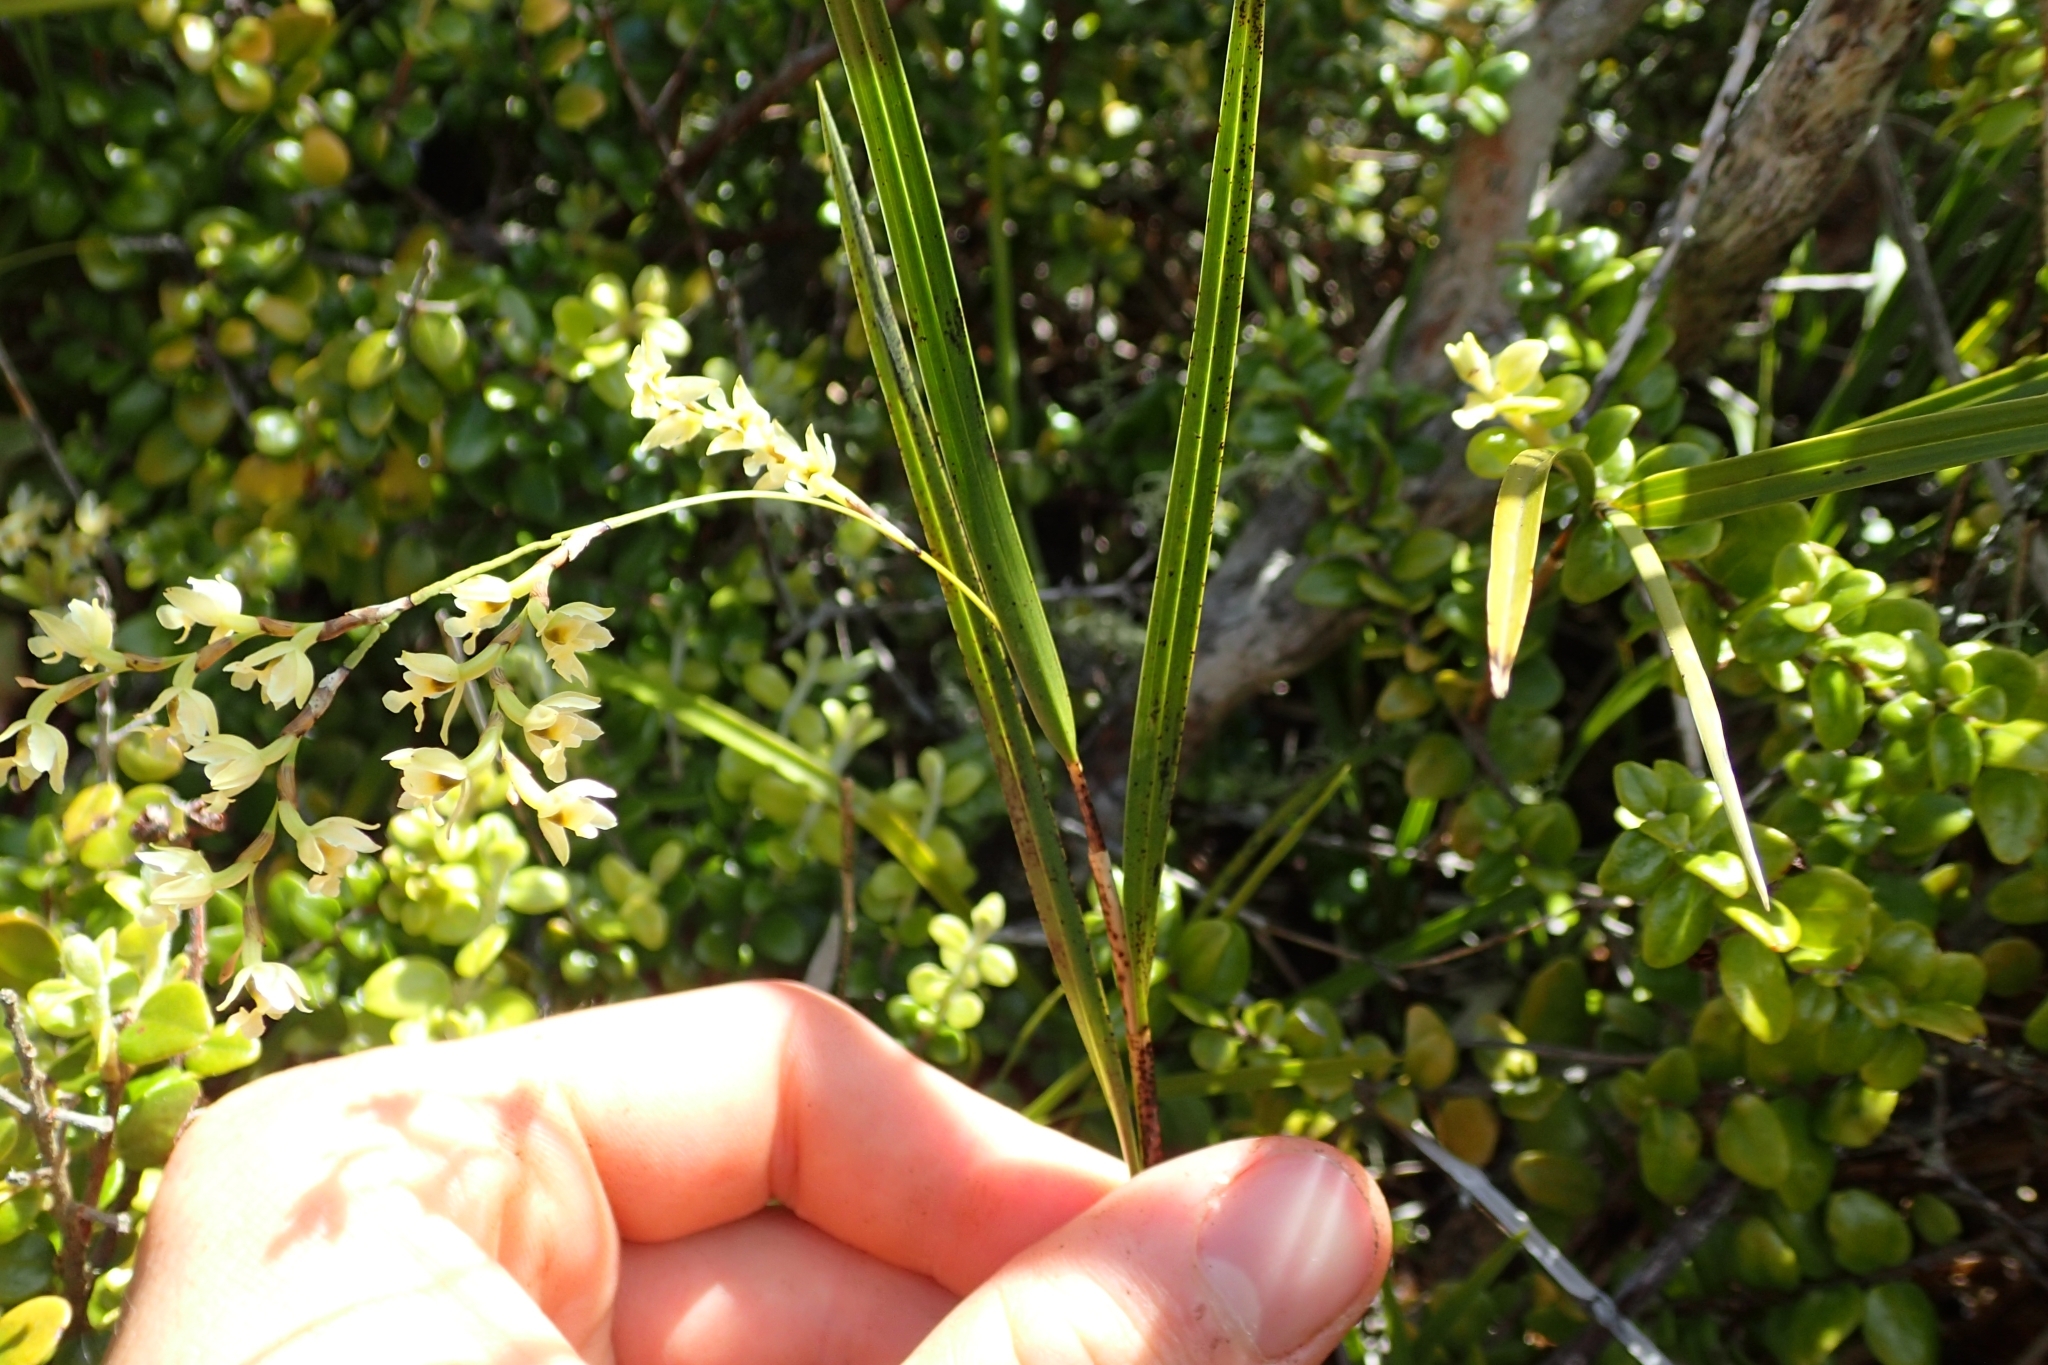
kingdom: Plantae
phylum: Tracheophyta
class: Liliopsida
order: Asparagales
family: Orchidaceae
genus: Earina
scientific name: Earina mucronata
